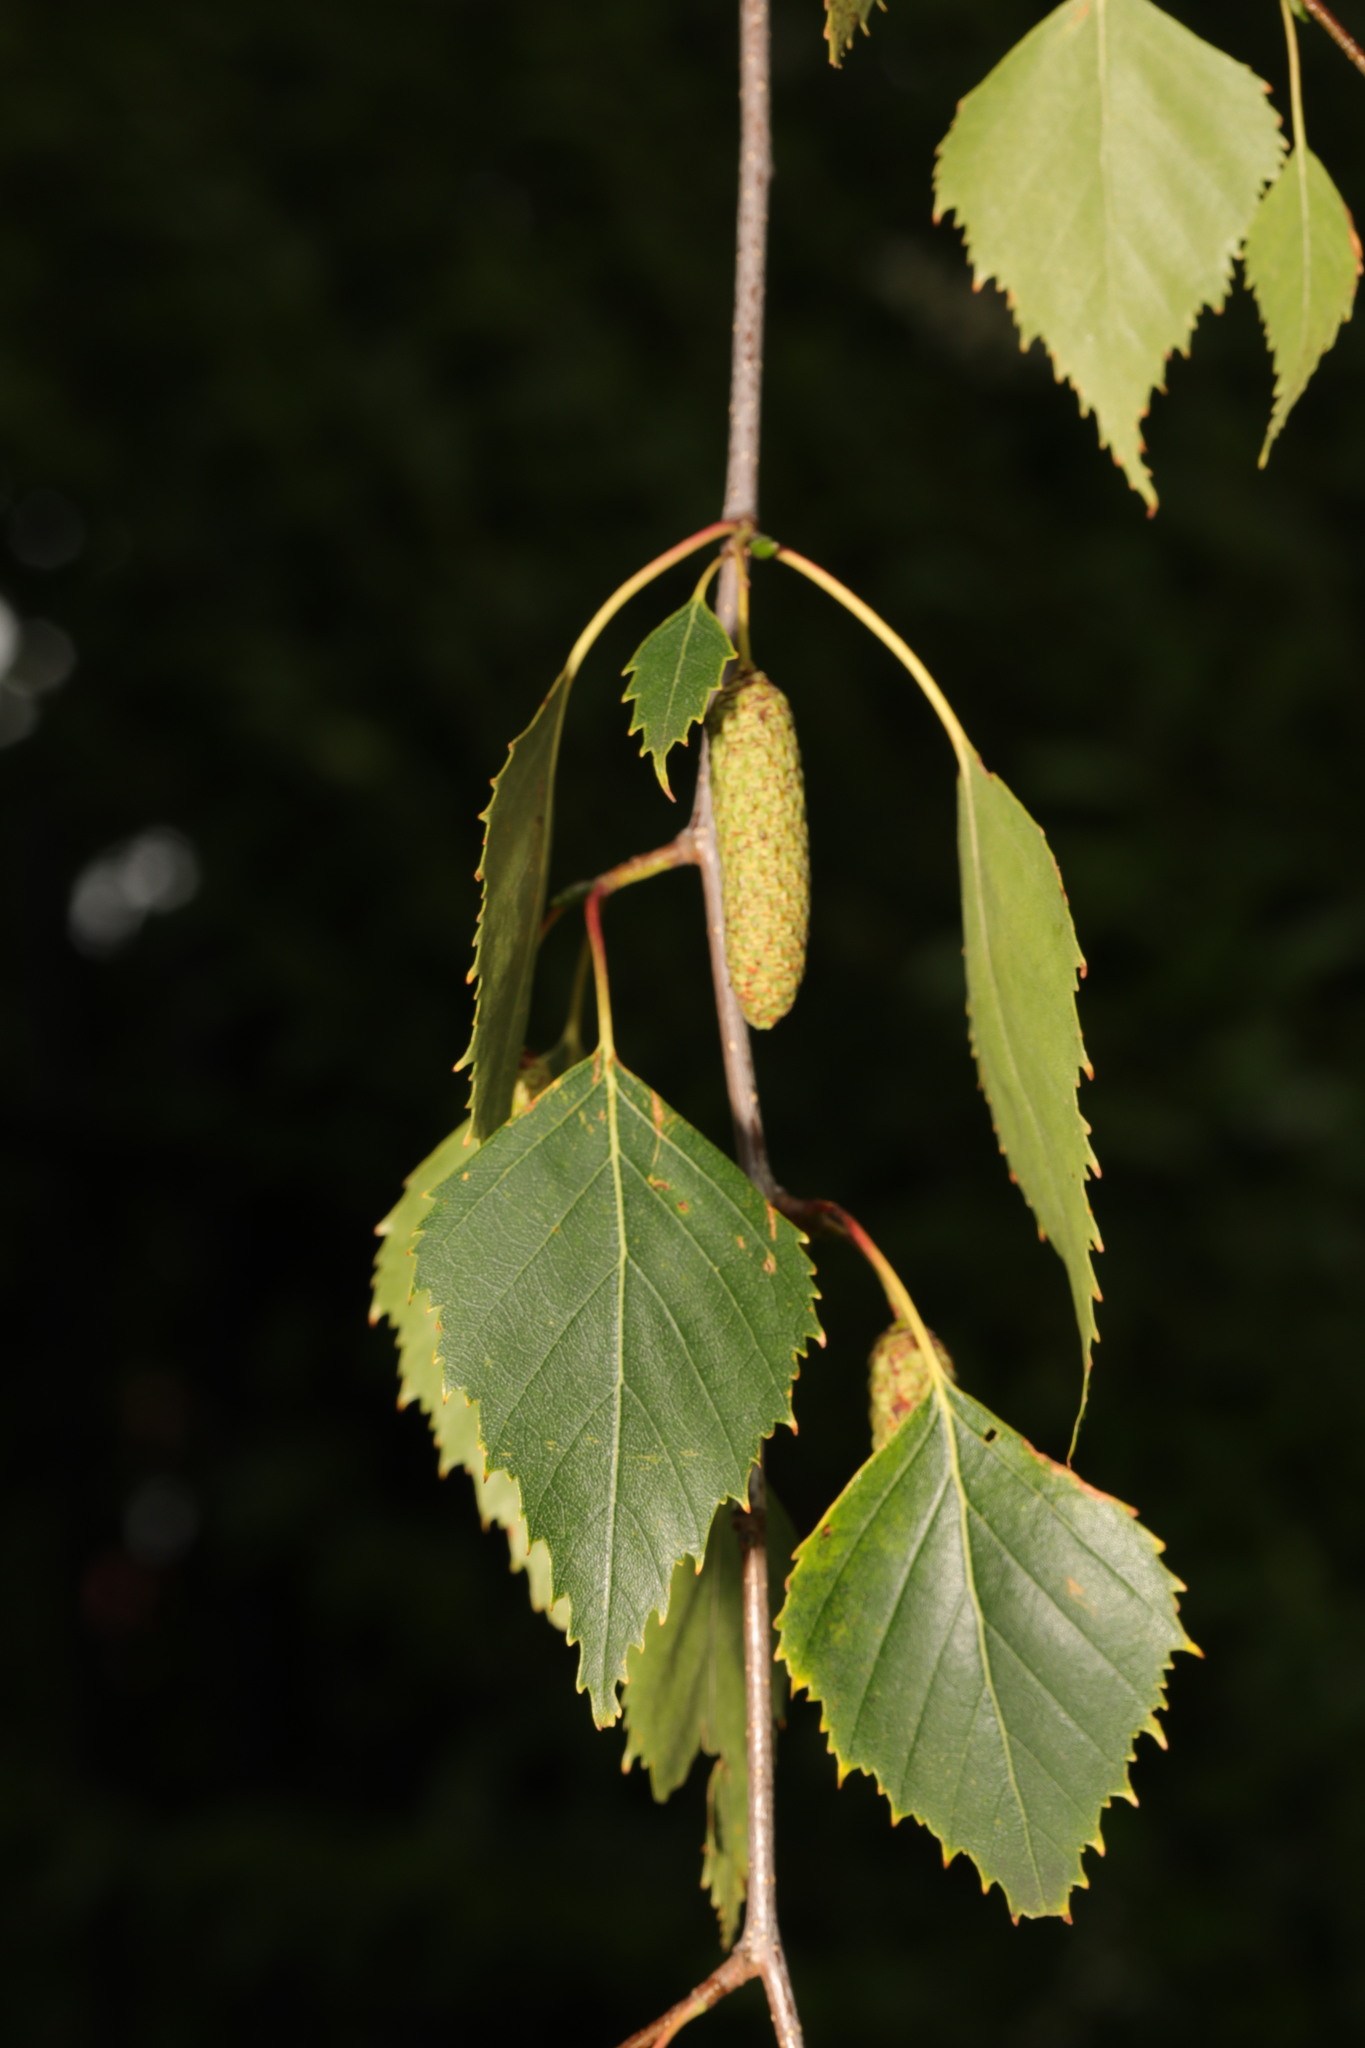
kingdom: Plantae
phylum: Tracheophyta
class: Magnoliopsida
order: Fagales
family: Betulaceae
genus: Betula
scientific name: Betula pendula
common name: Silver birch
